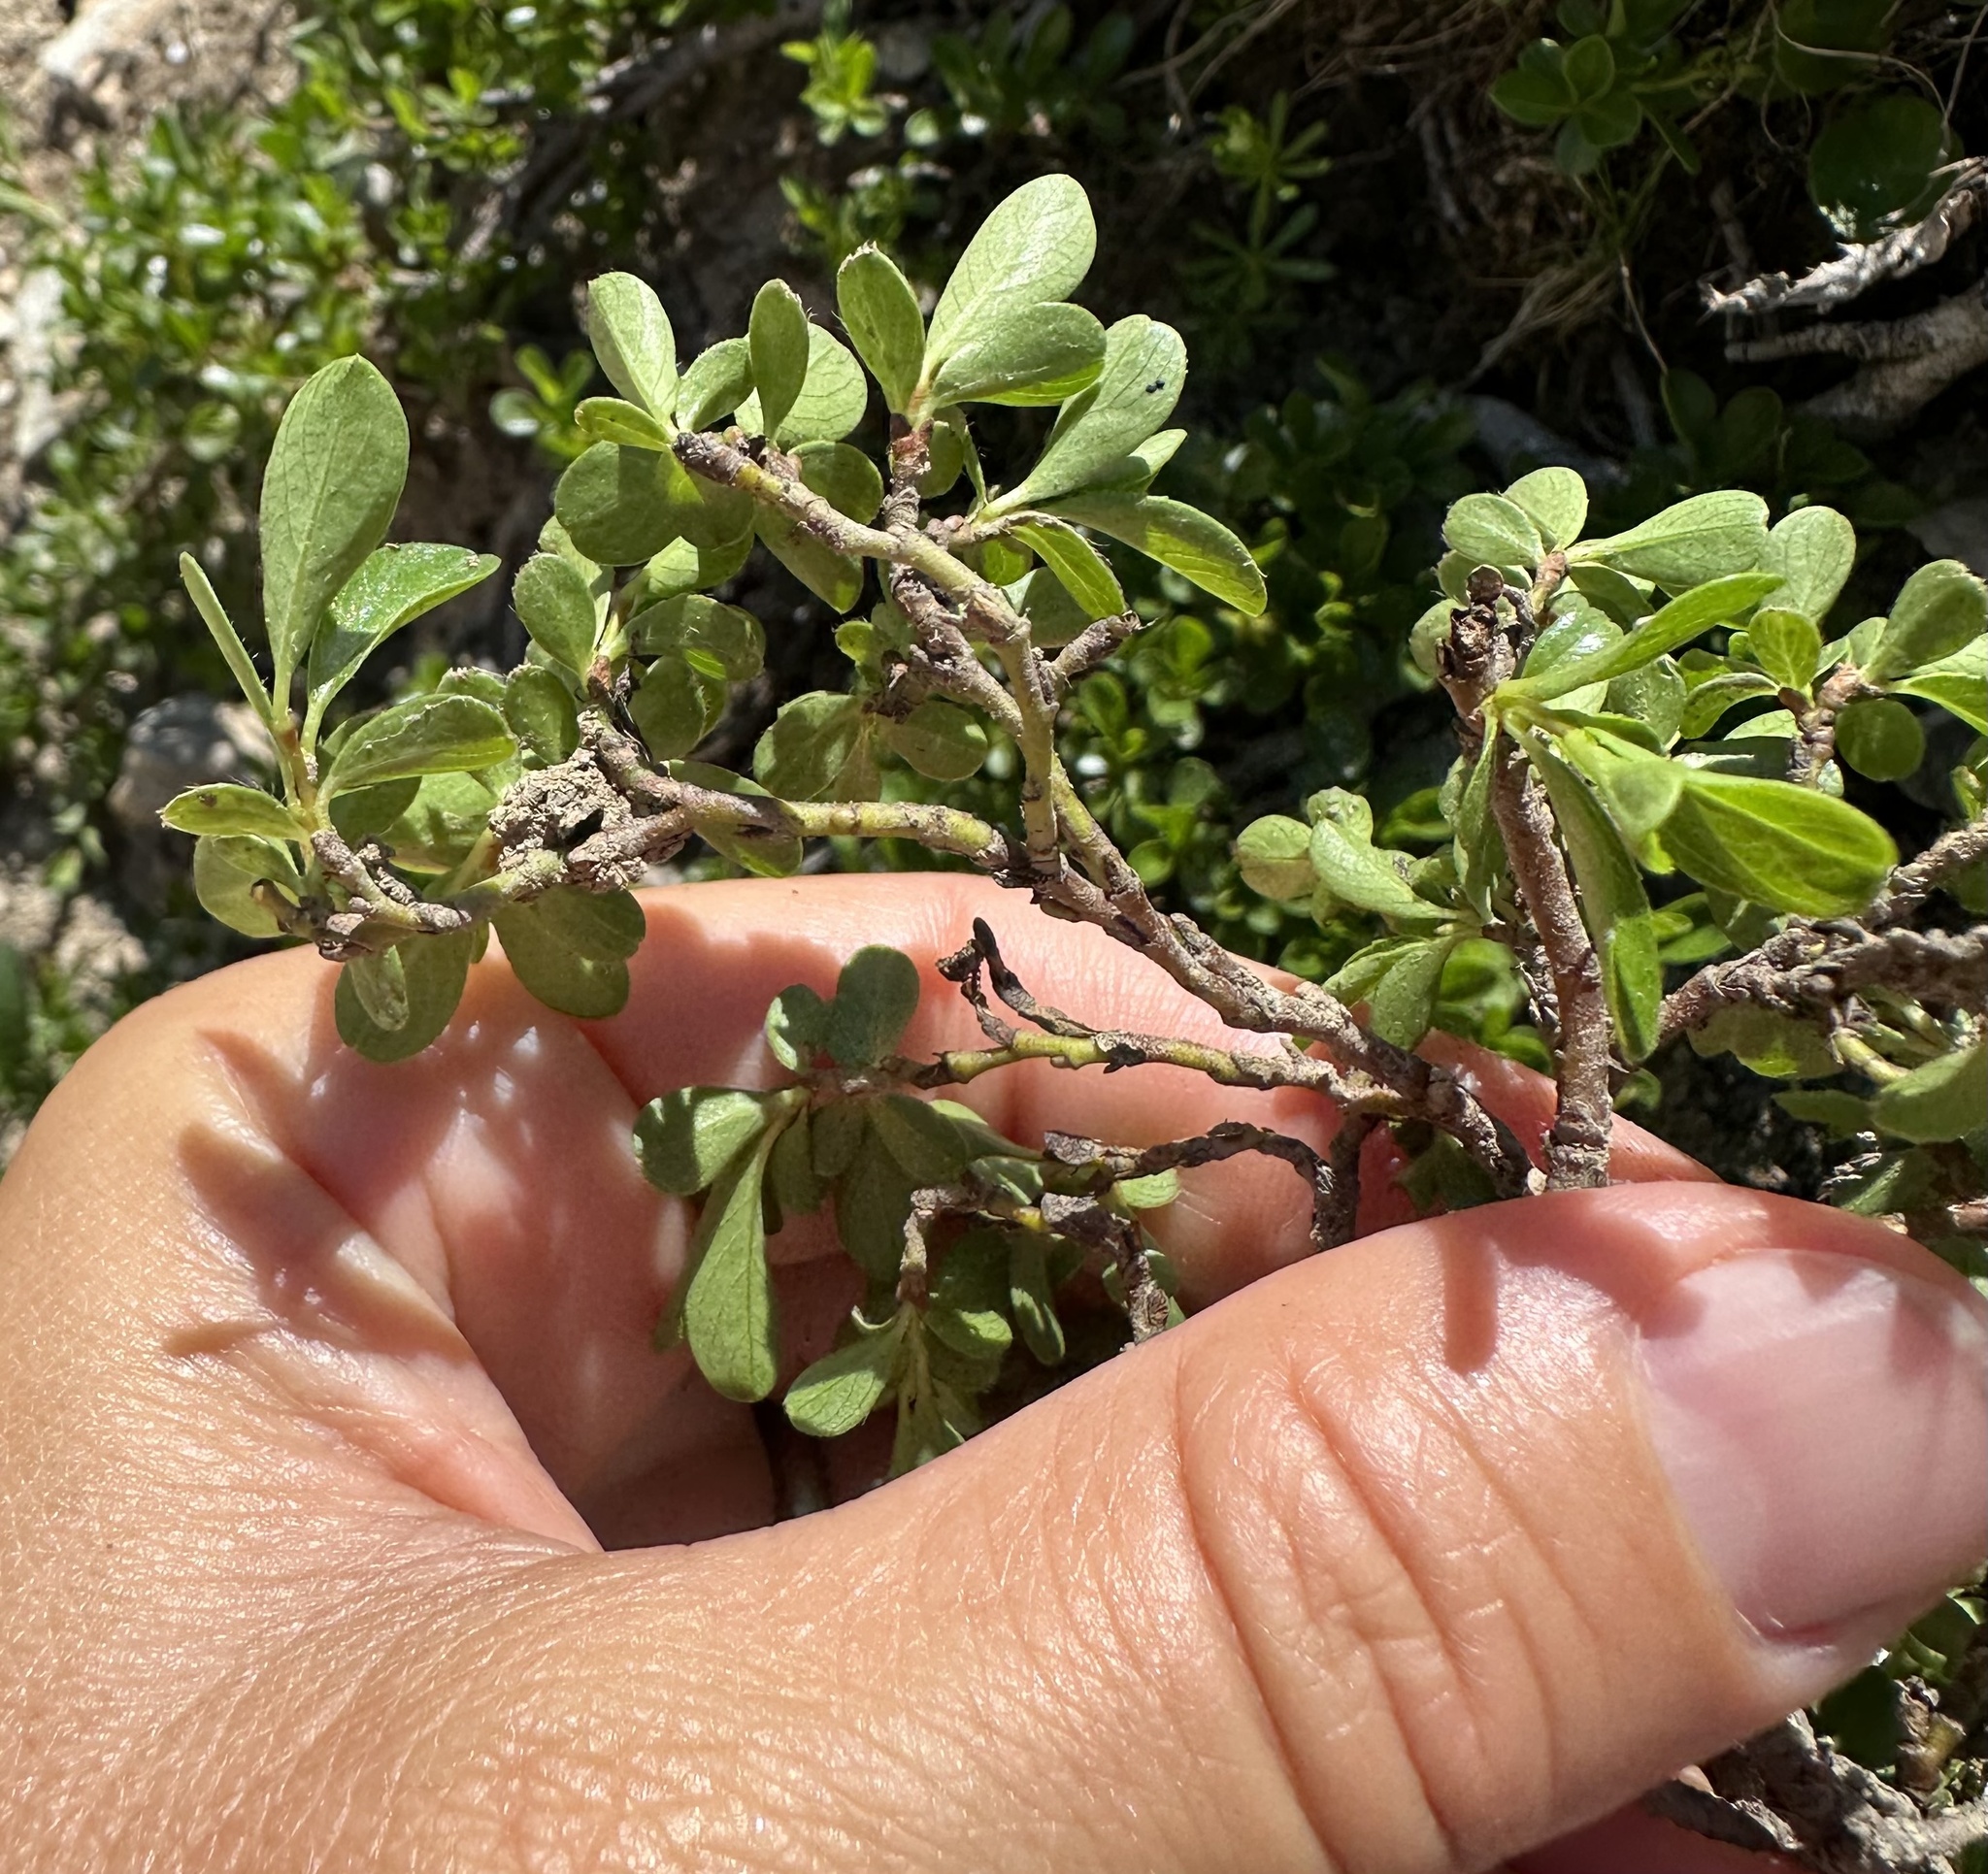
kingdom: Plantae
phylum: Tracheophyta
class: Magnoliopsida
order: Rosales
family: Rhamnaceae
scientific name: Rhamnaceae
